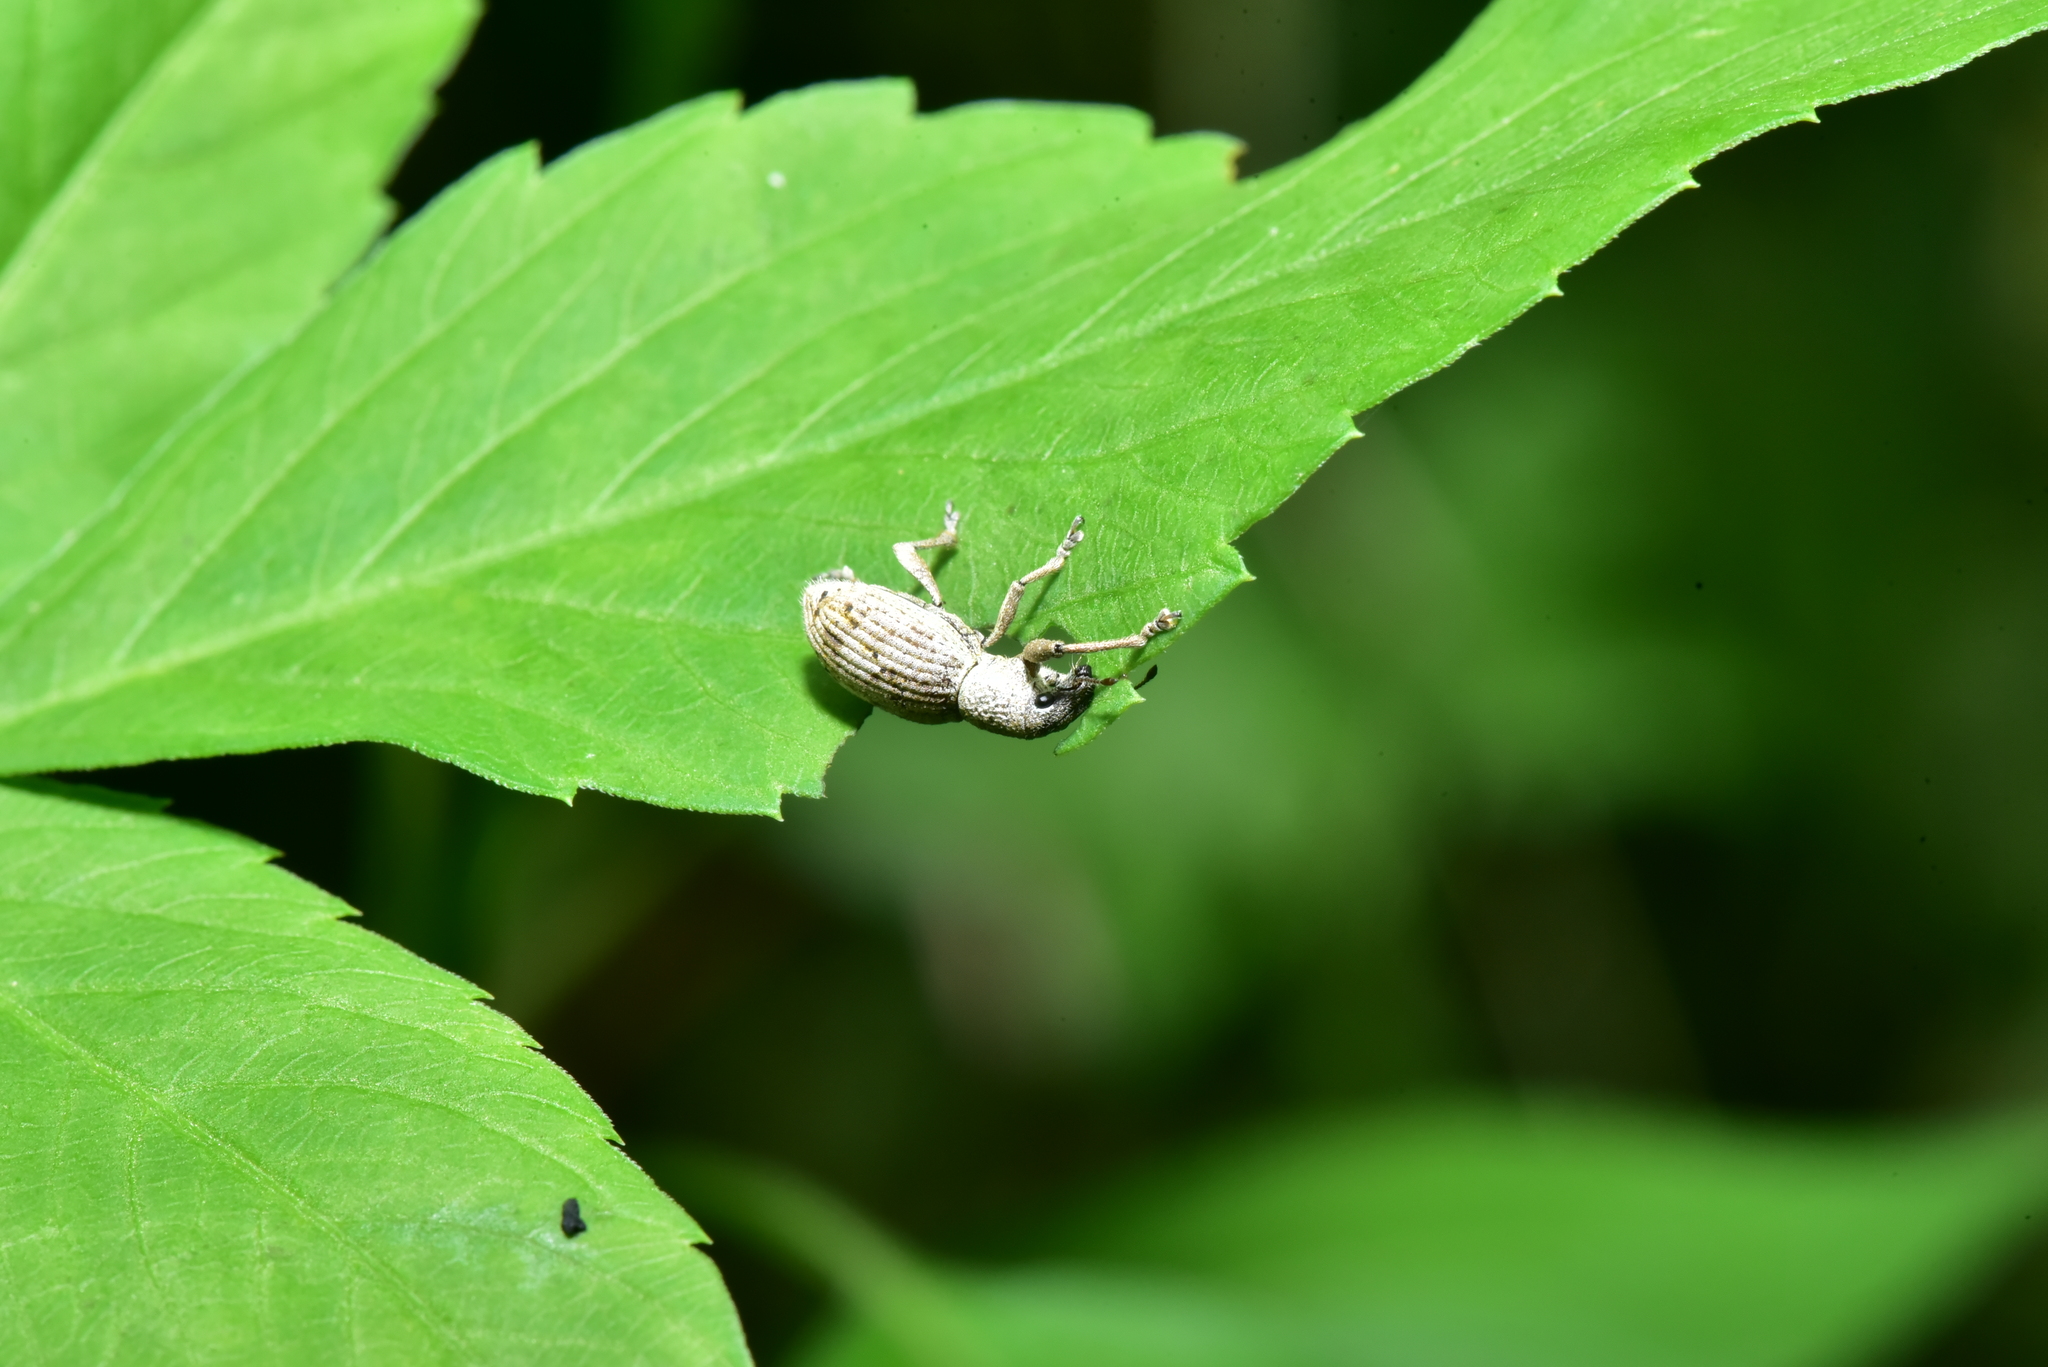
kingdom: Animalia
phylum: Arthropoda
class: Insecta
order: Coleoptera
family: Curculionidae
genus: Sympiezomias
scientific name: Sympiezomias cribricollis
